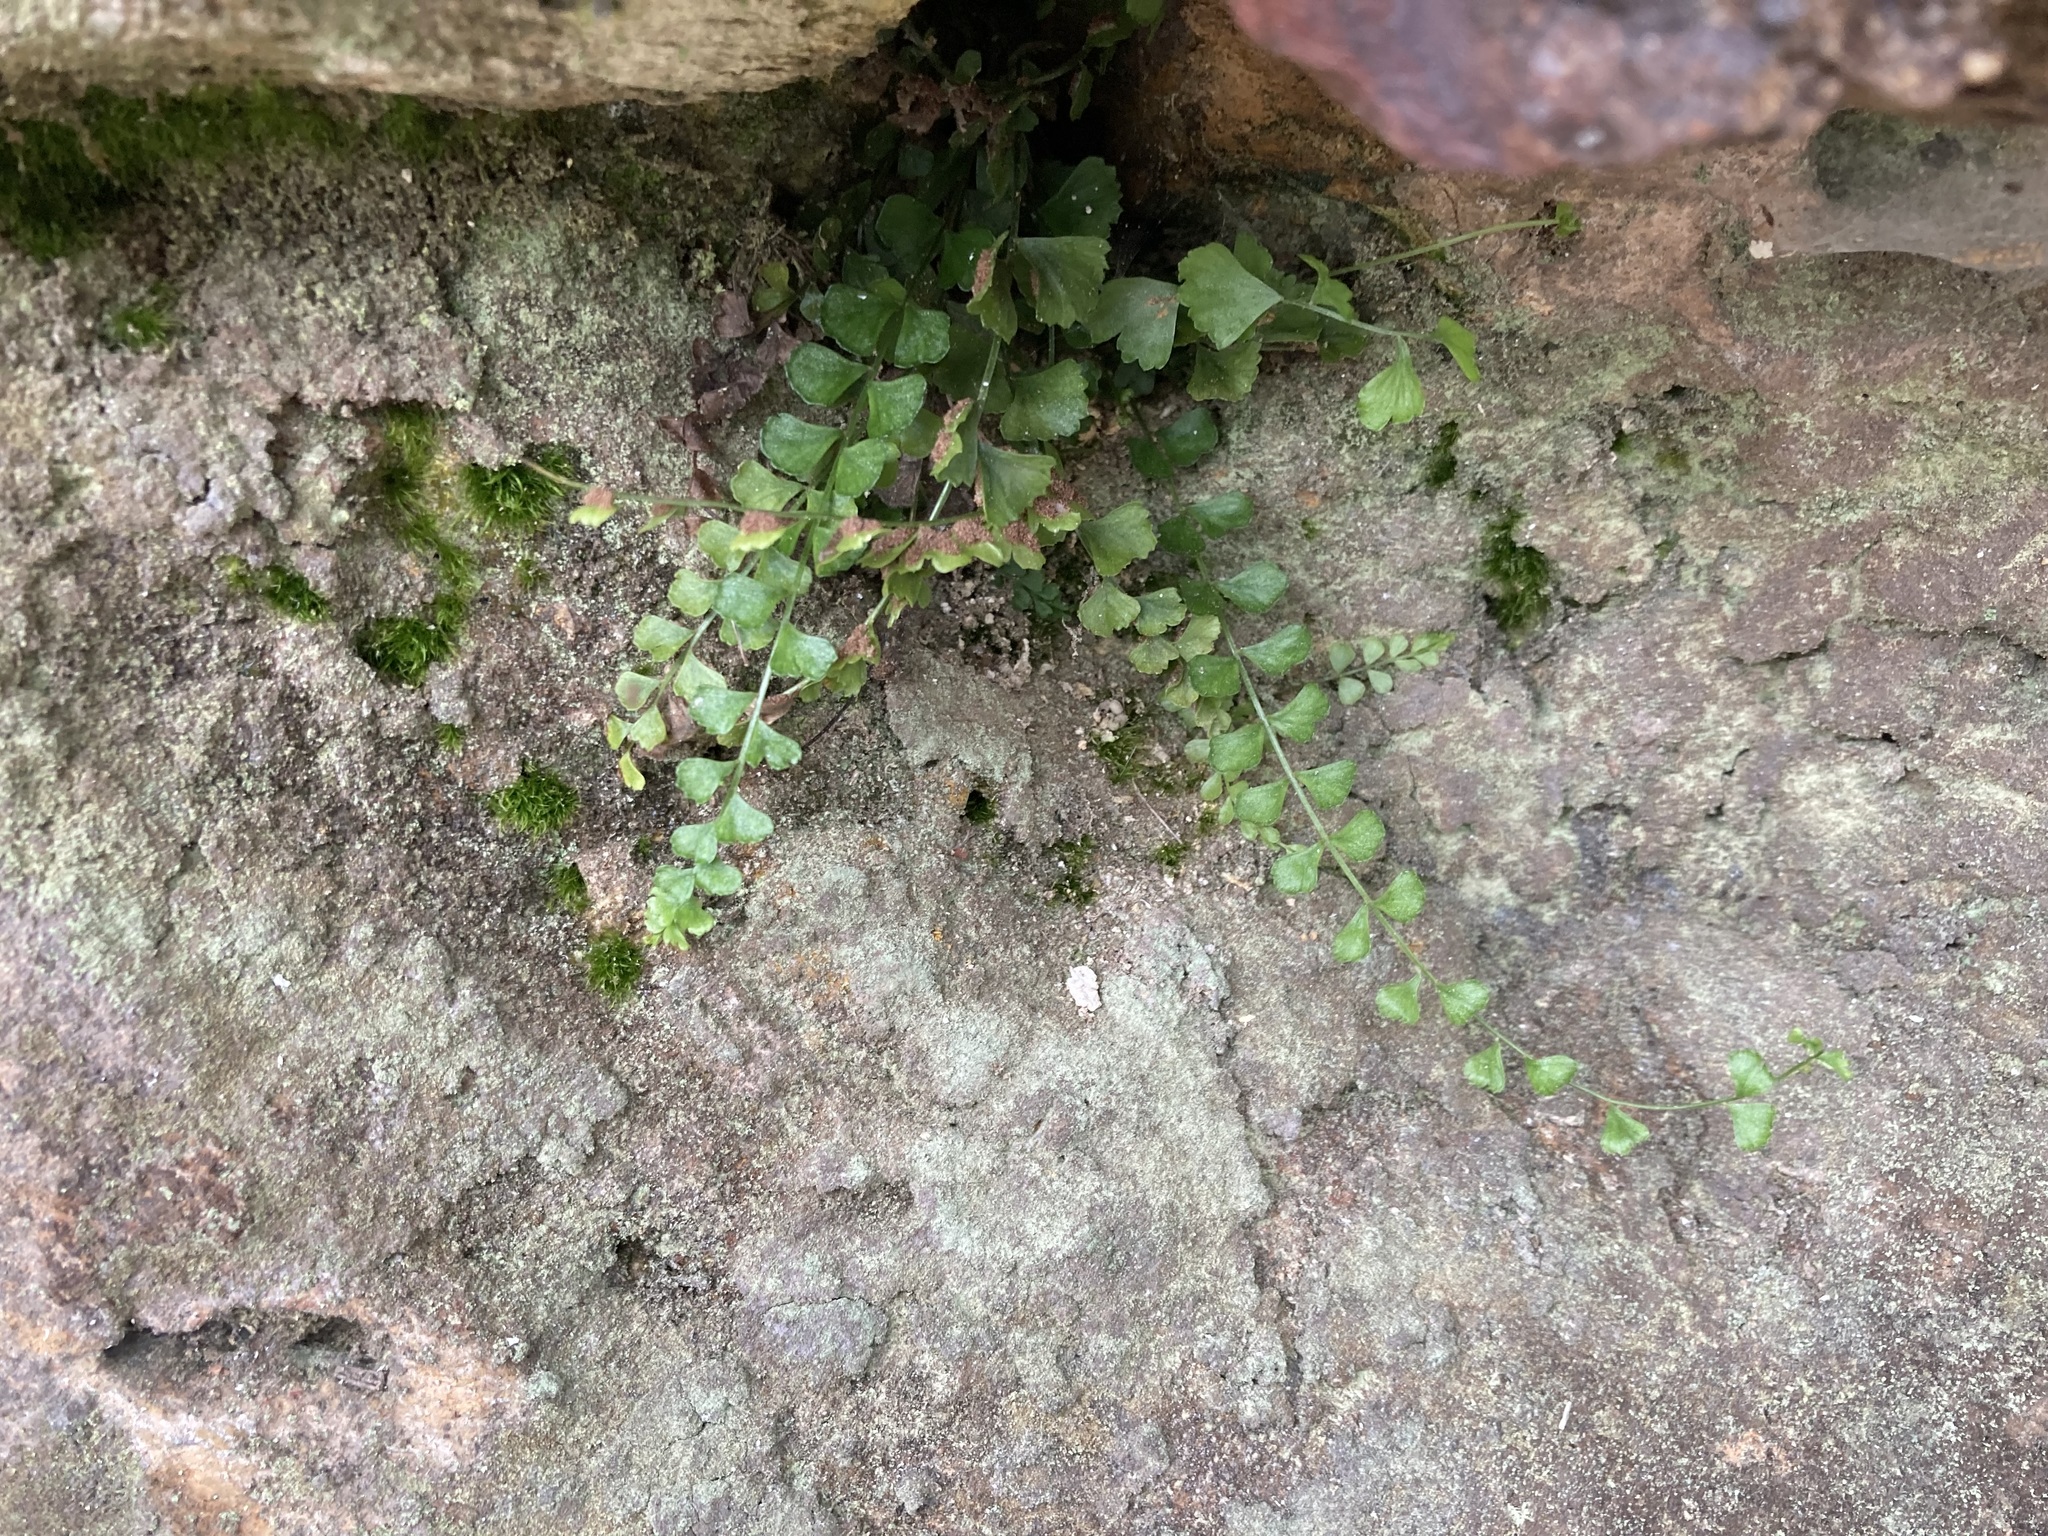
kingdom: Plantae
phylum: Tracheophyta
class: Polypodiopsida
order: Polypodiales
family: Aspleniaceae
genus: Asplenium
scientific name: Asplenium flabellifolium
